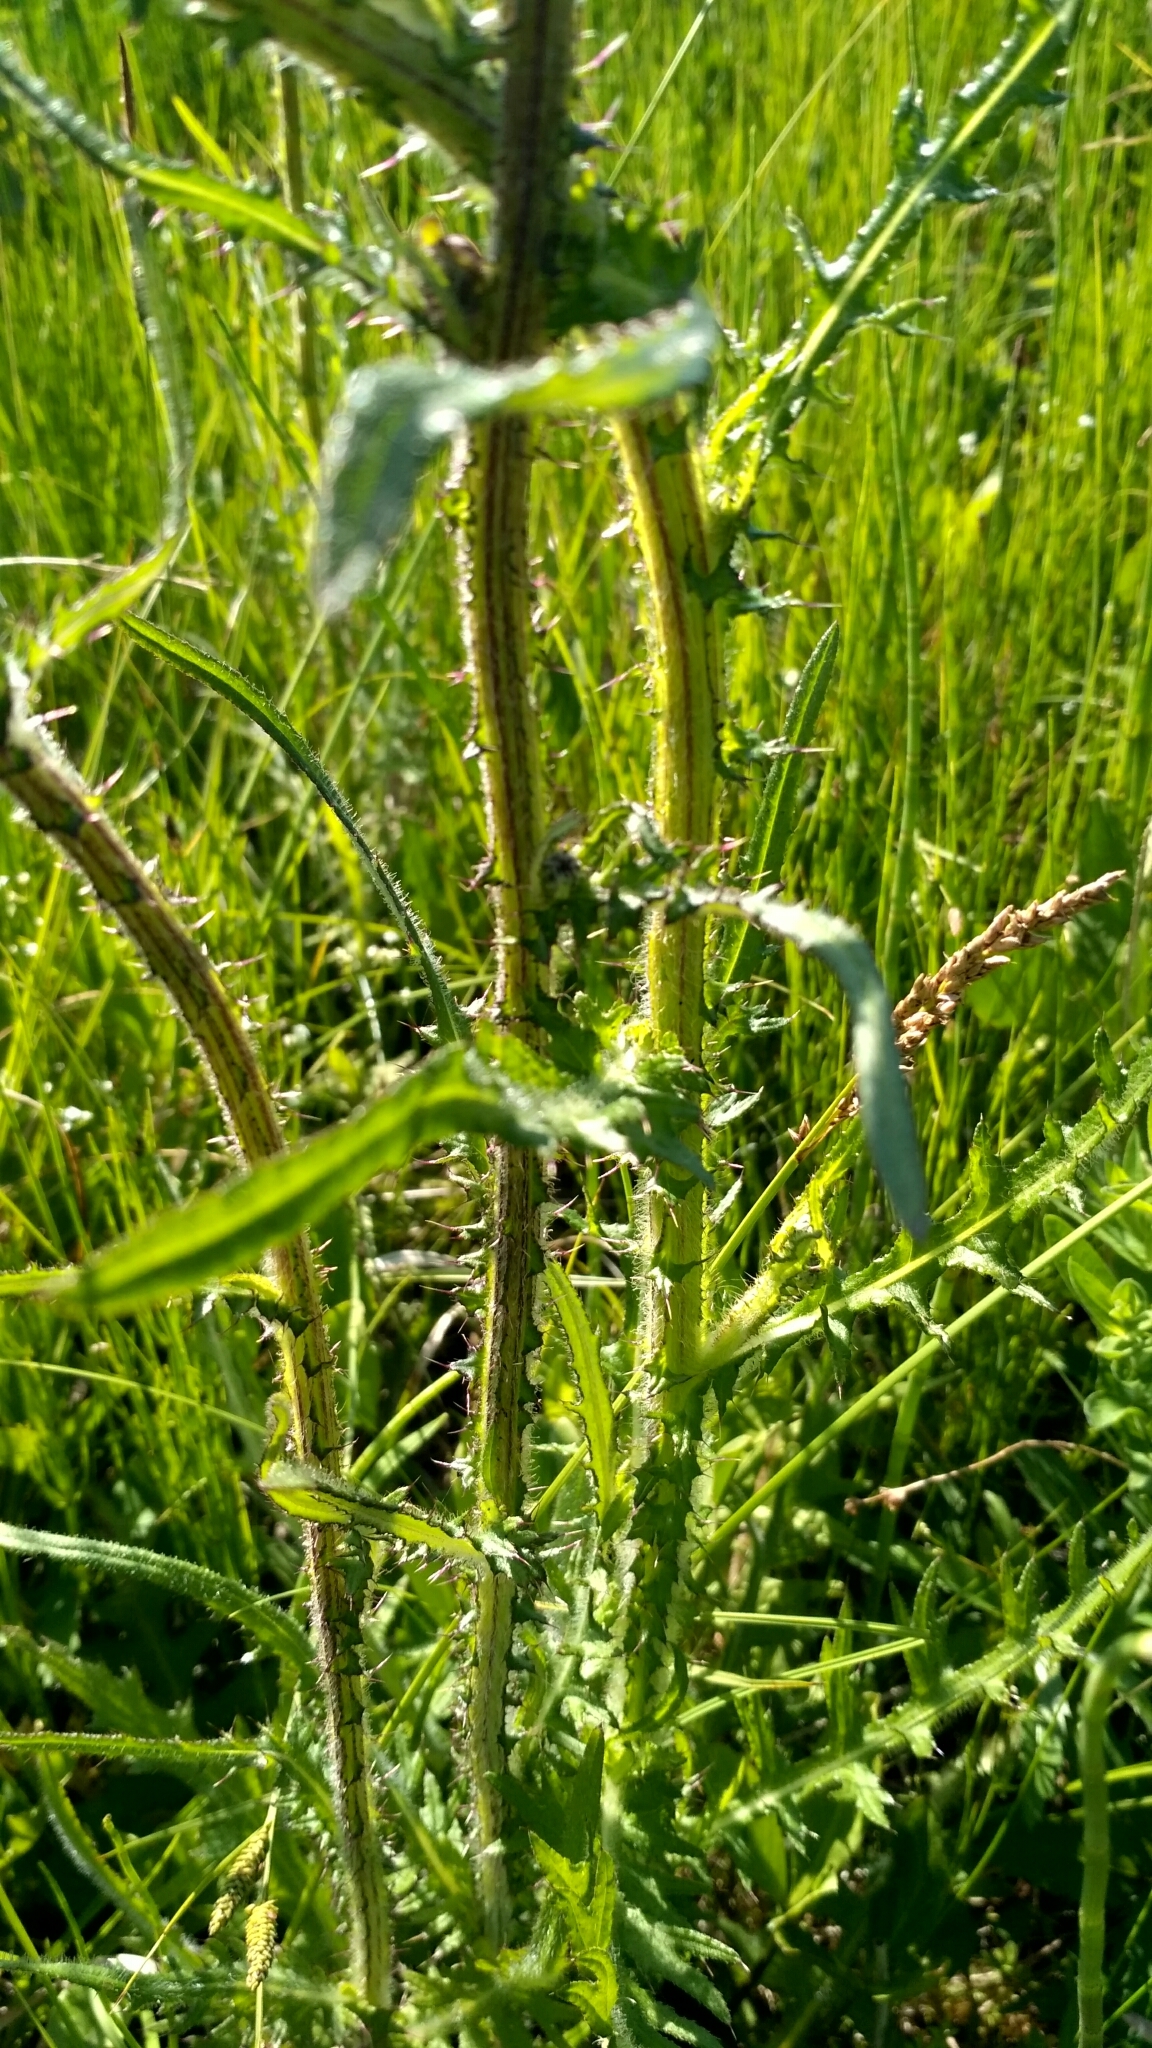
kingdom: Plantae
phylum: Tracheophyta
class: Magnoliopsida
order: Asterales
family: Asteraceae
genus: Cirsium
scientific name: Cirsium palustre
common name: Marsh thistle
